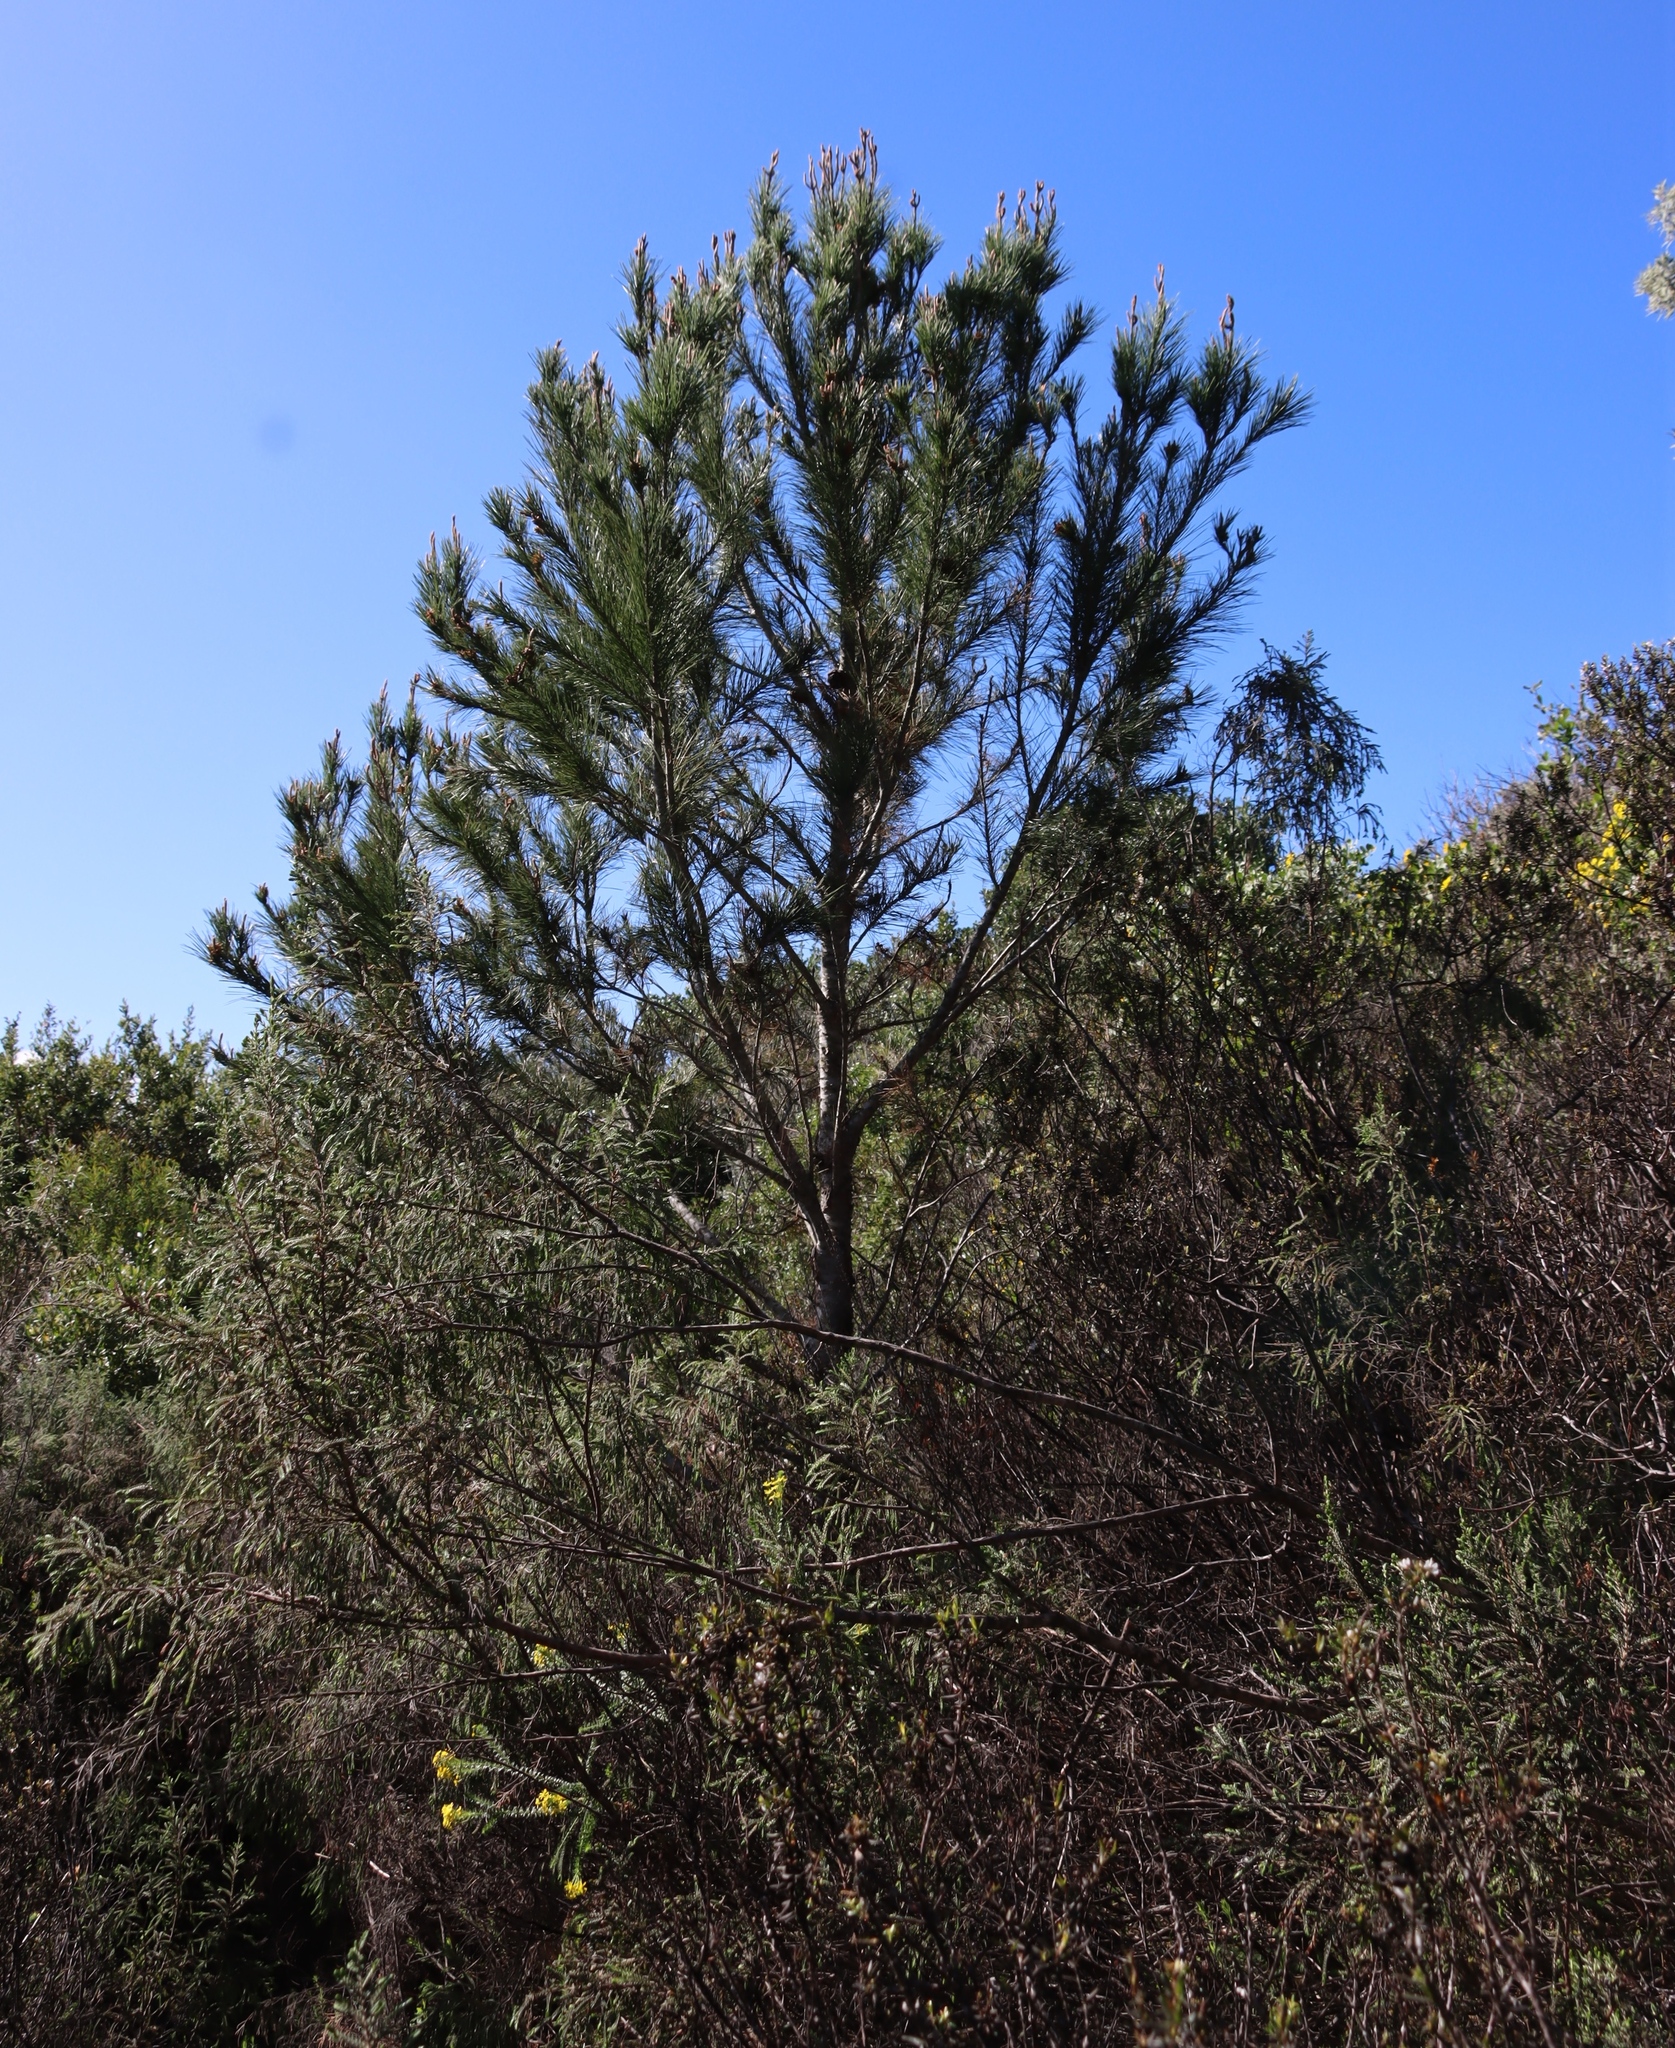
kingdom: Plantae
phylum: Tracheophyta
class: Pinopsida
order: Pinales
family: Pinaceae
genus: Pinus
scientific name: Pinus pinaster
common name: Maritime pine
